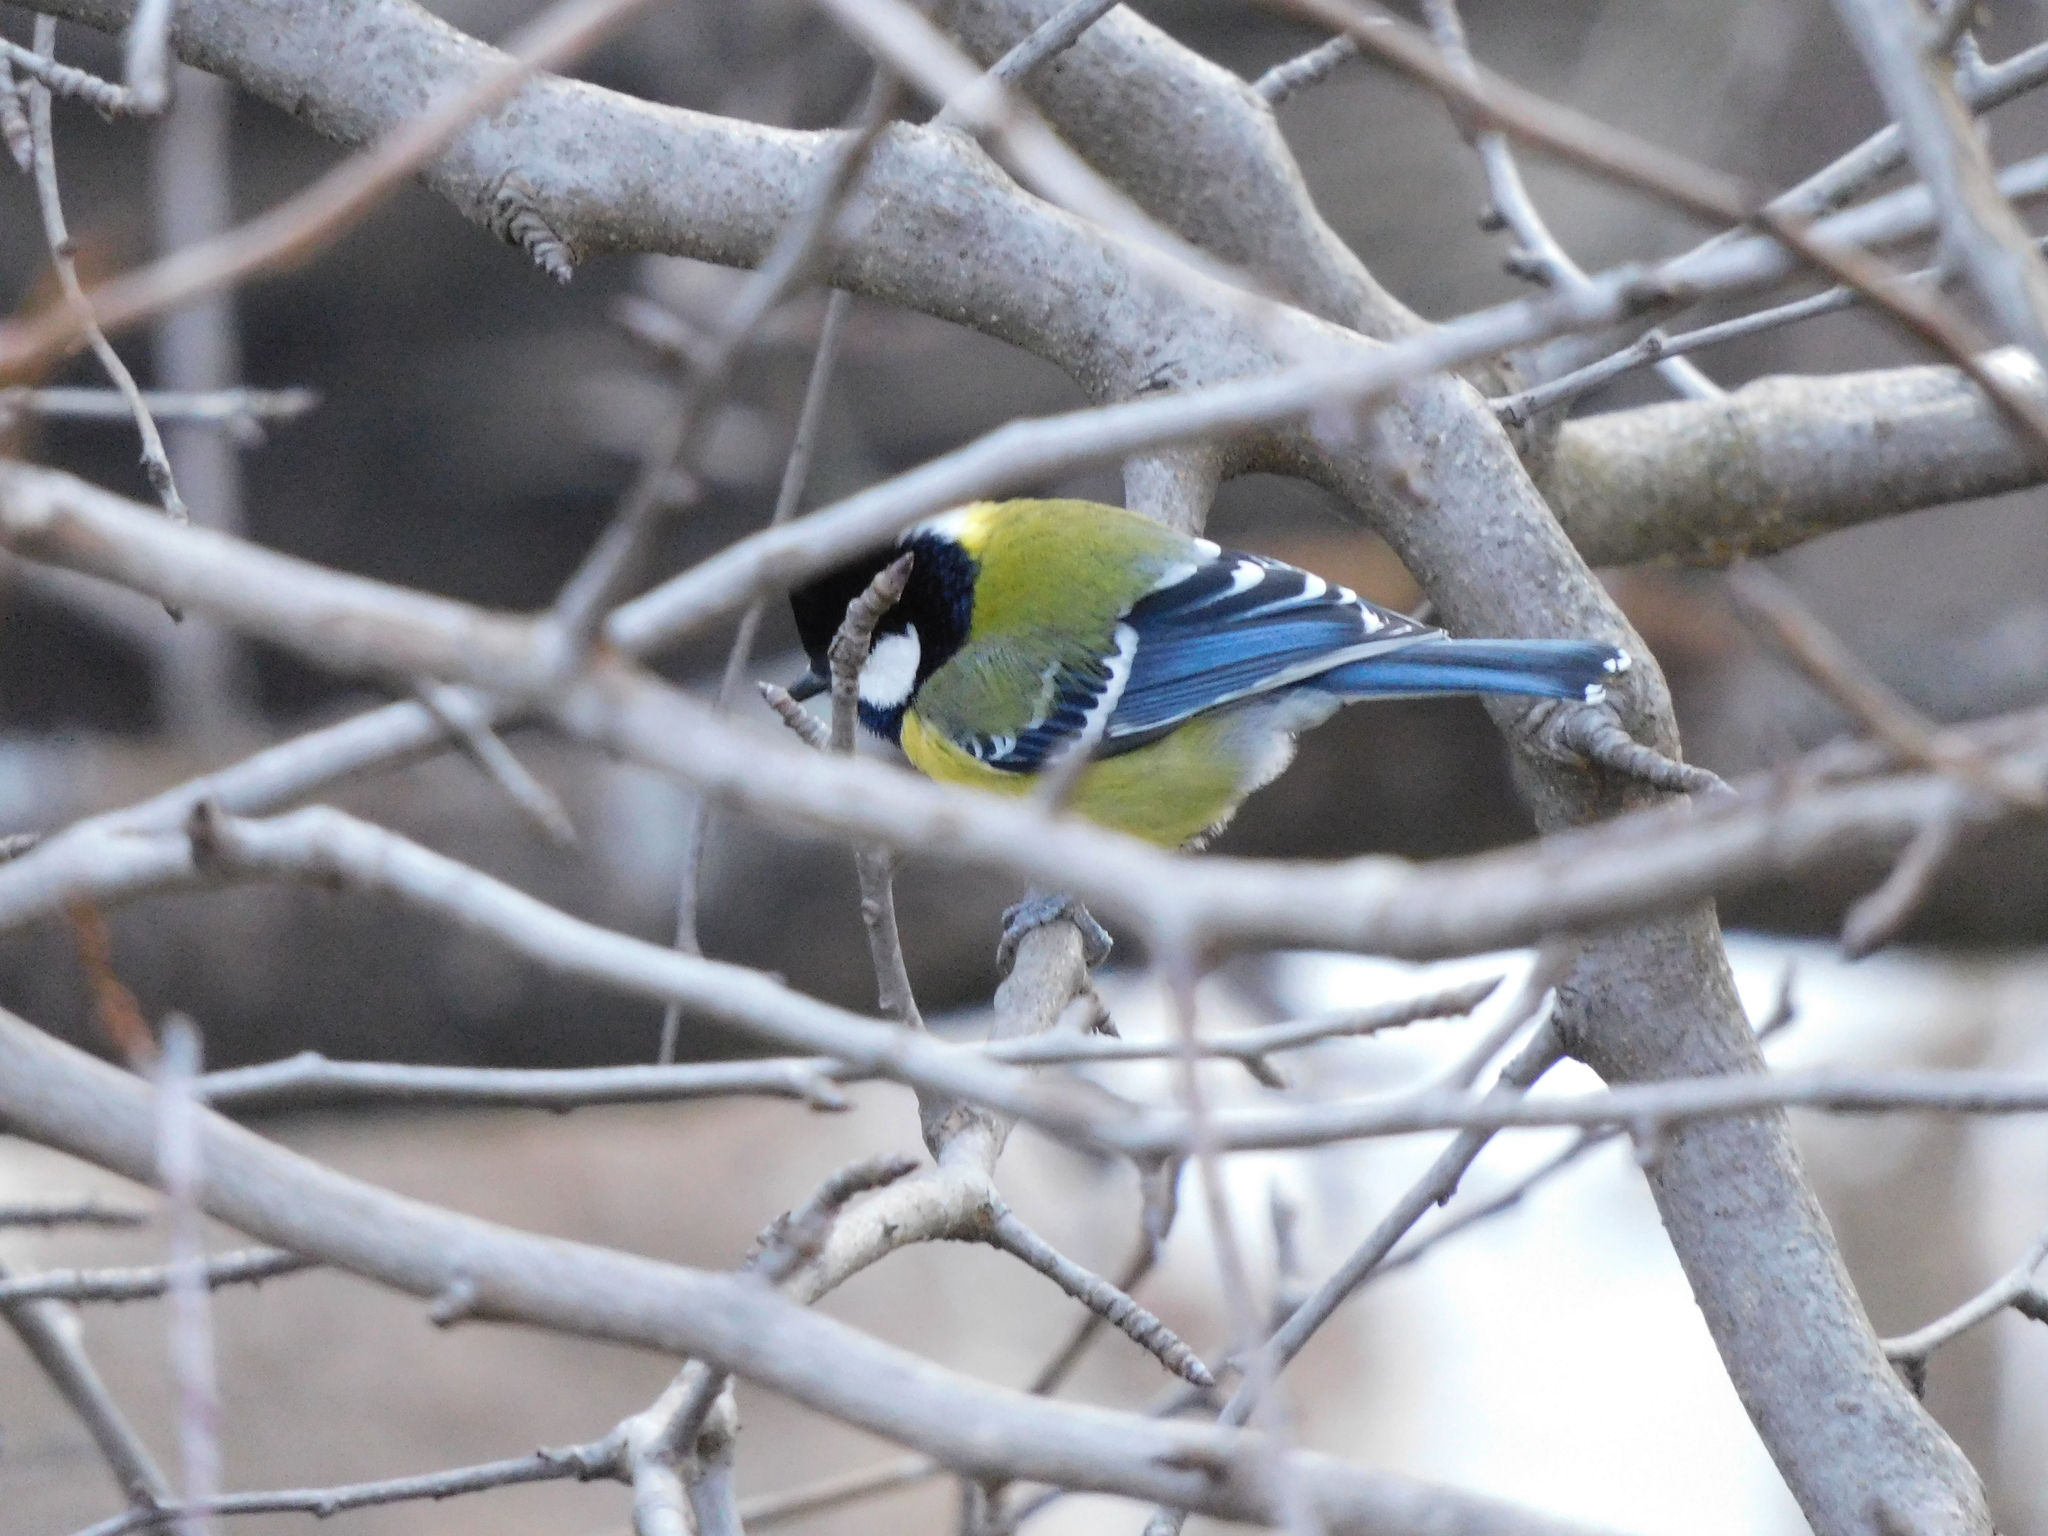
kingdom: Animalia
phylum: Chordata
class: Aves
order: Passeriformes
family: Paridae
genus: Parus
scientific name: Parus monticolus
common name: Green-backed tit
